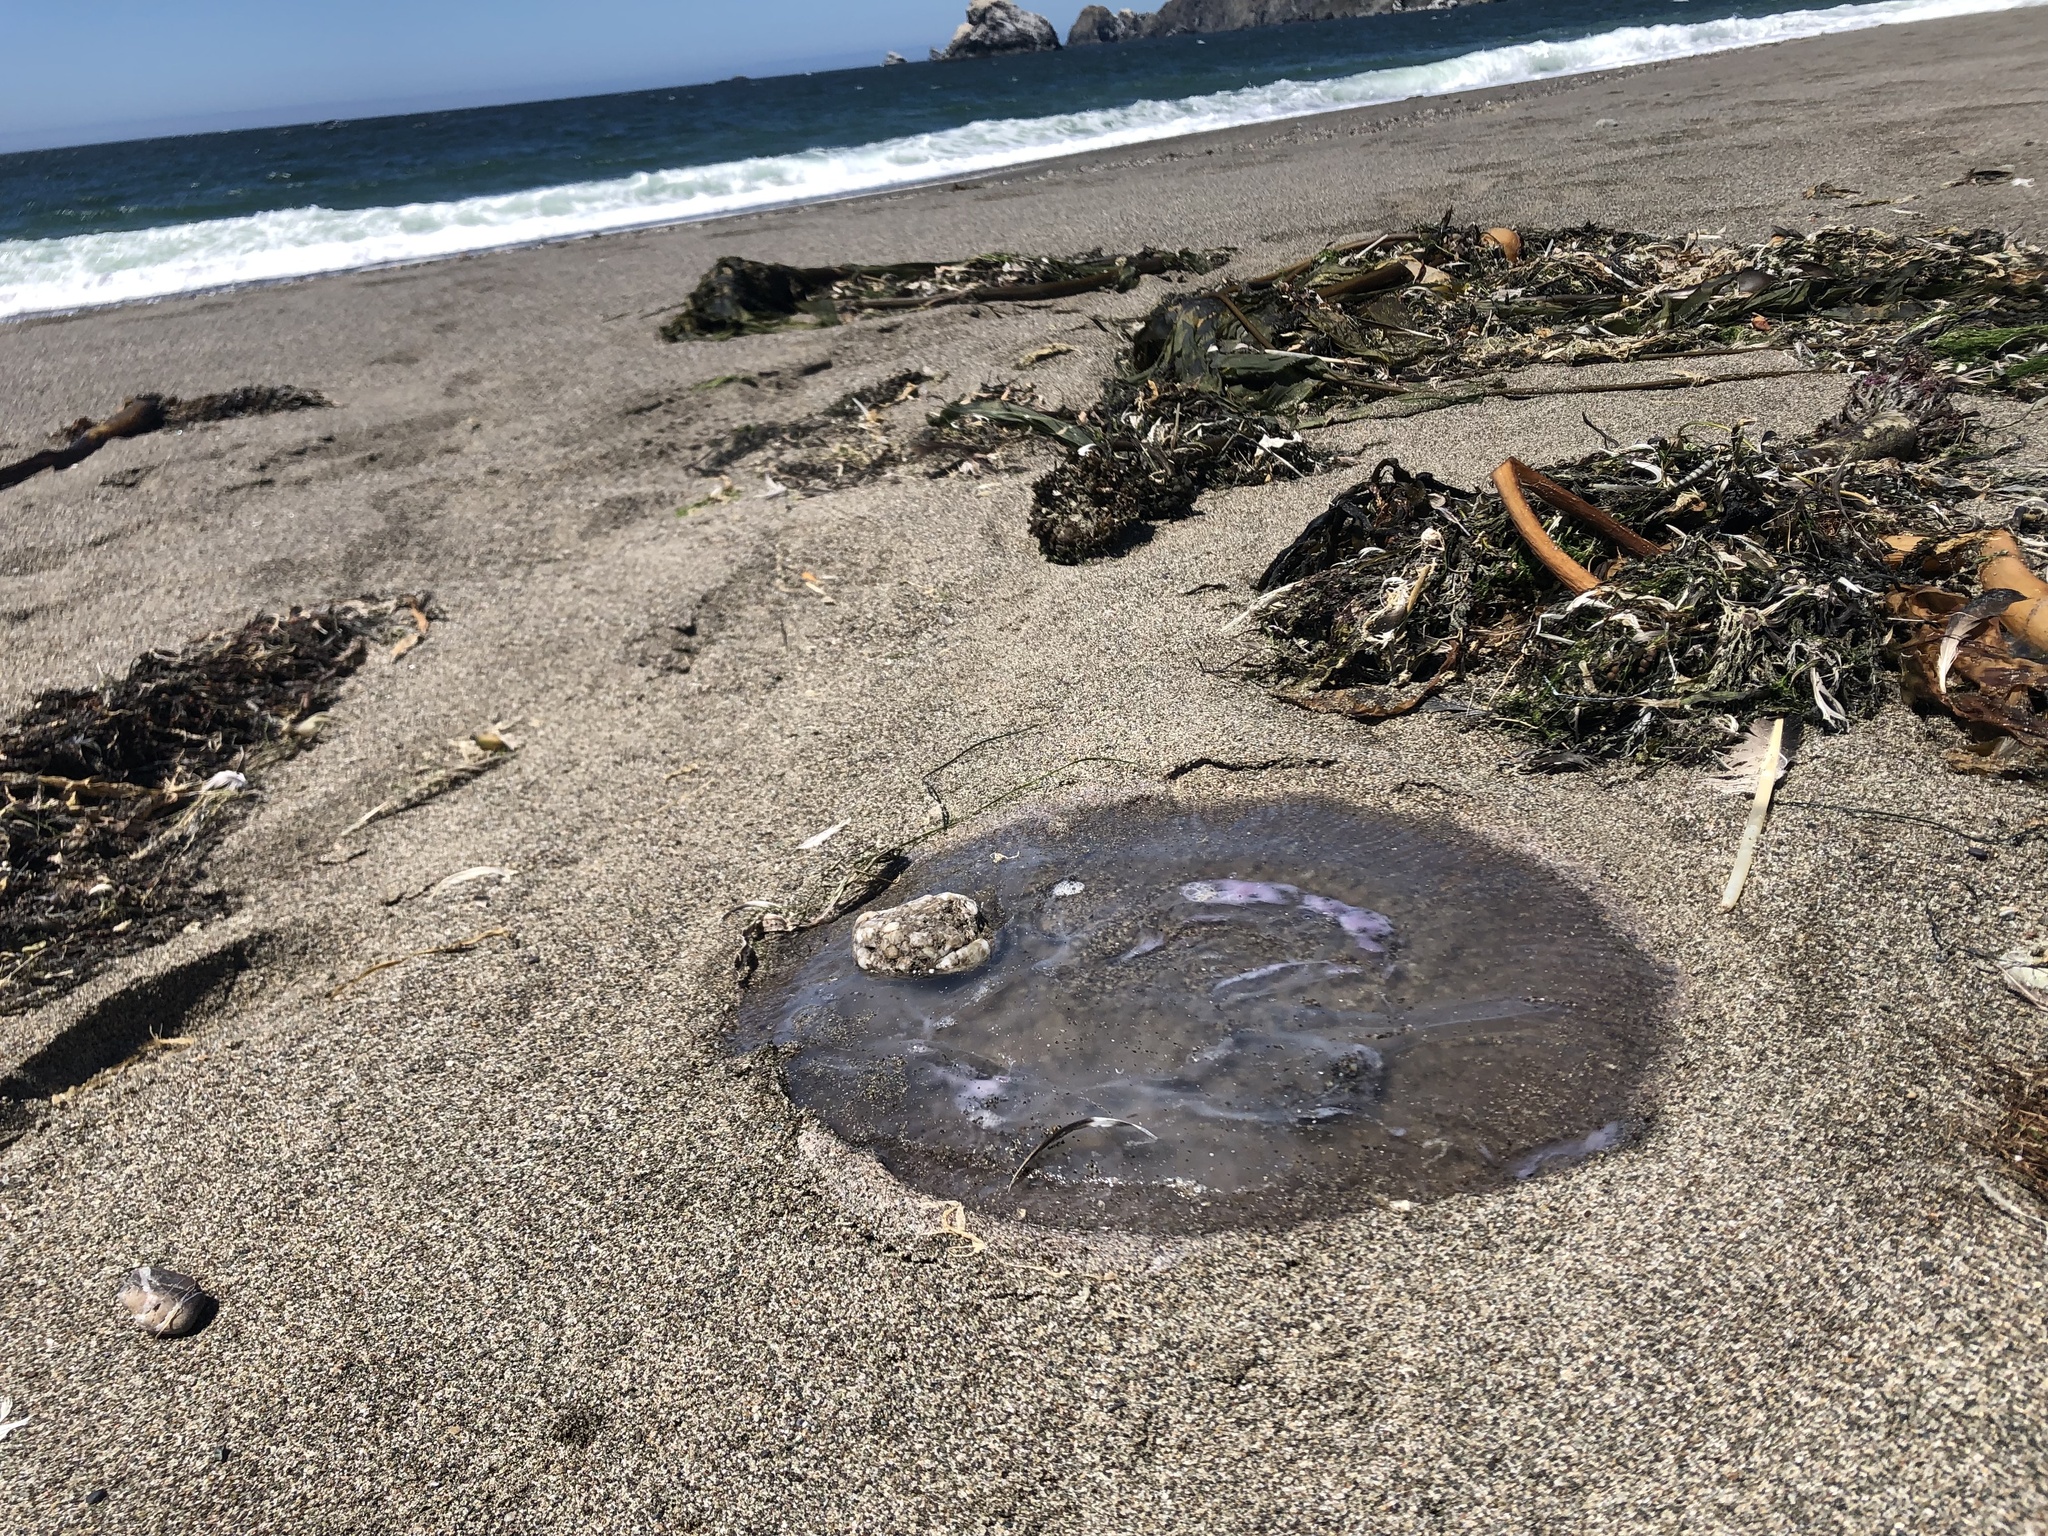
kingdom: Animalia
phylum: Cnidaria
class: Scyphozoa
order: Semaeostomeae
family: Ulmaridae
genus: Aurelia
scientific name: Aurelia labiata
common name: Pacific moon jelly
